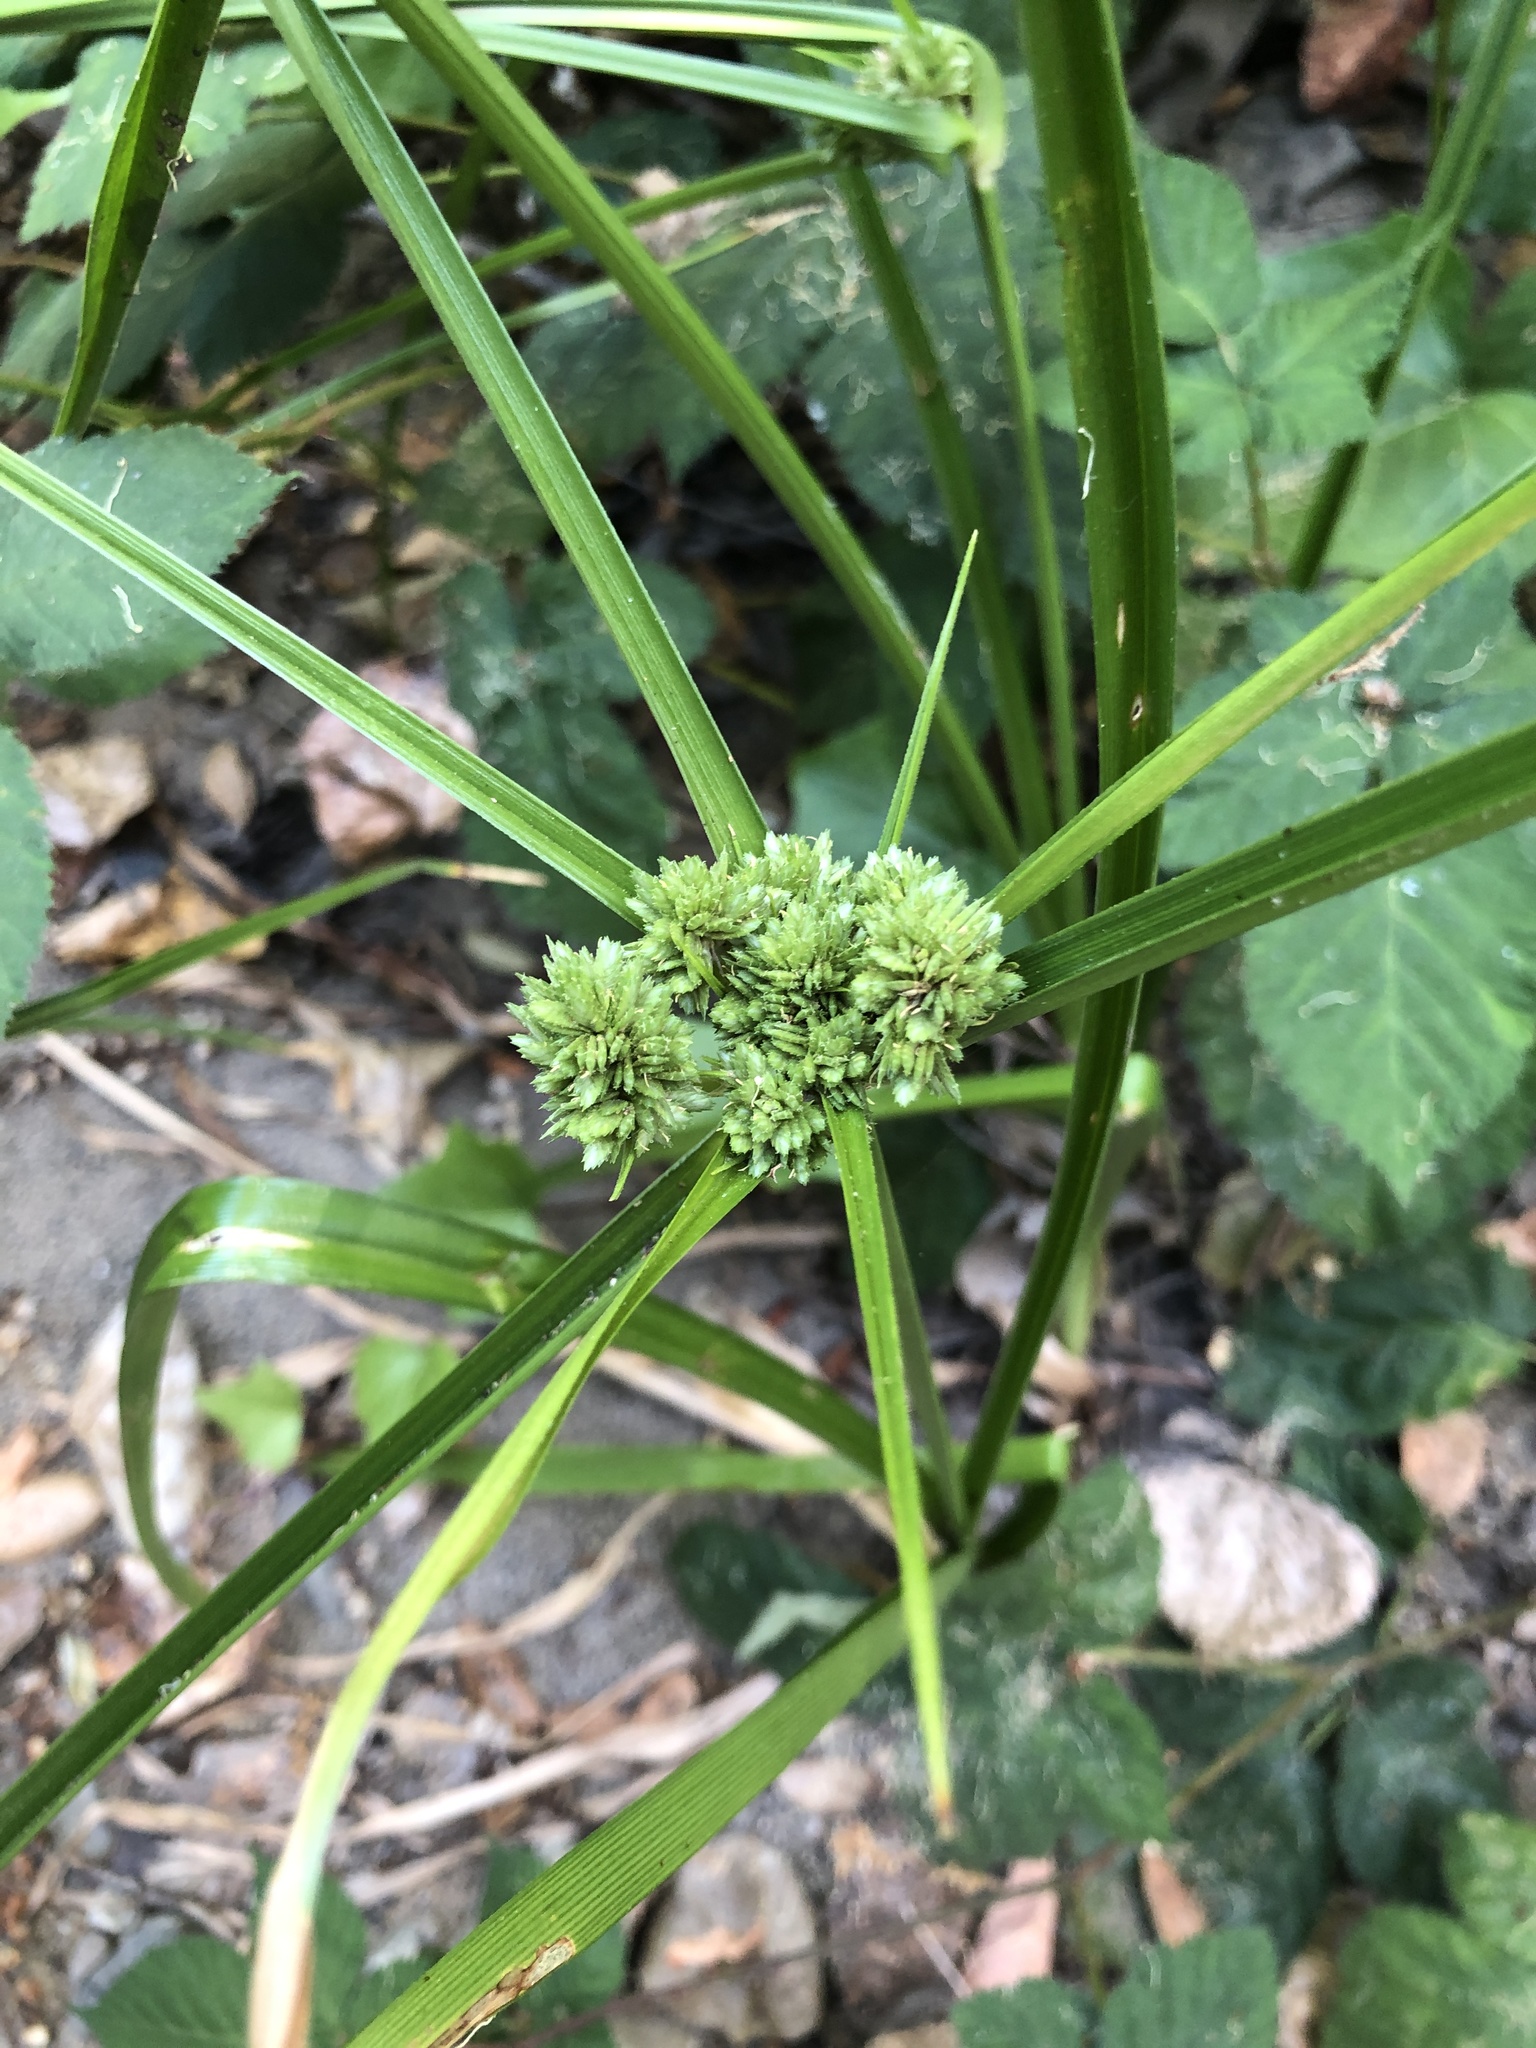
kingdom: Plantae
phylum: Tracheophyta
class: Liliopsida
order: Poales
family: Cyperaceae
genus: Cyperus
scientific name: Cyperus eragrostis
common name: Tall flatsedge
